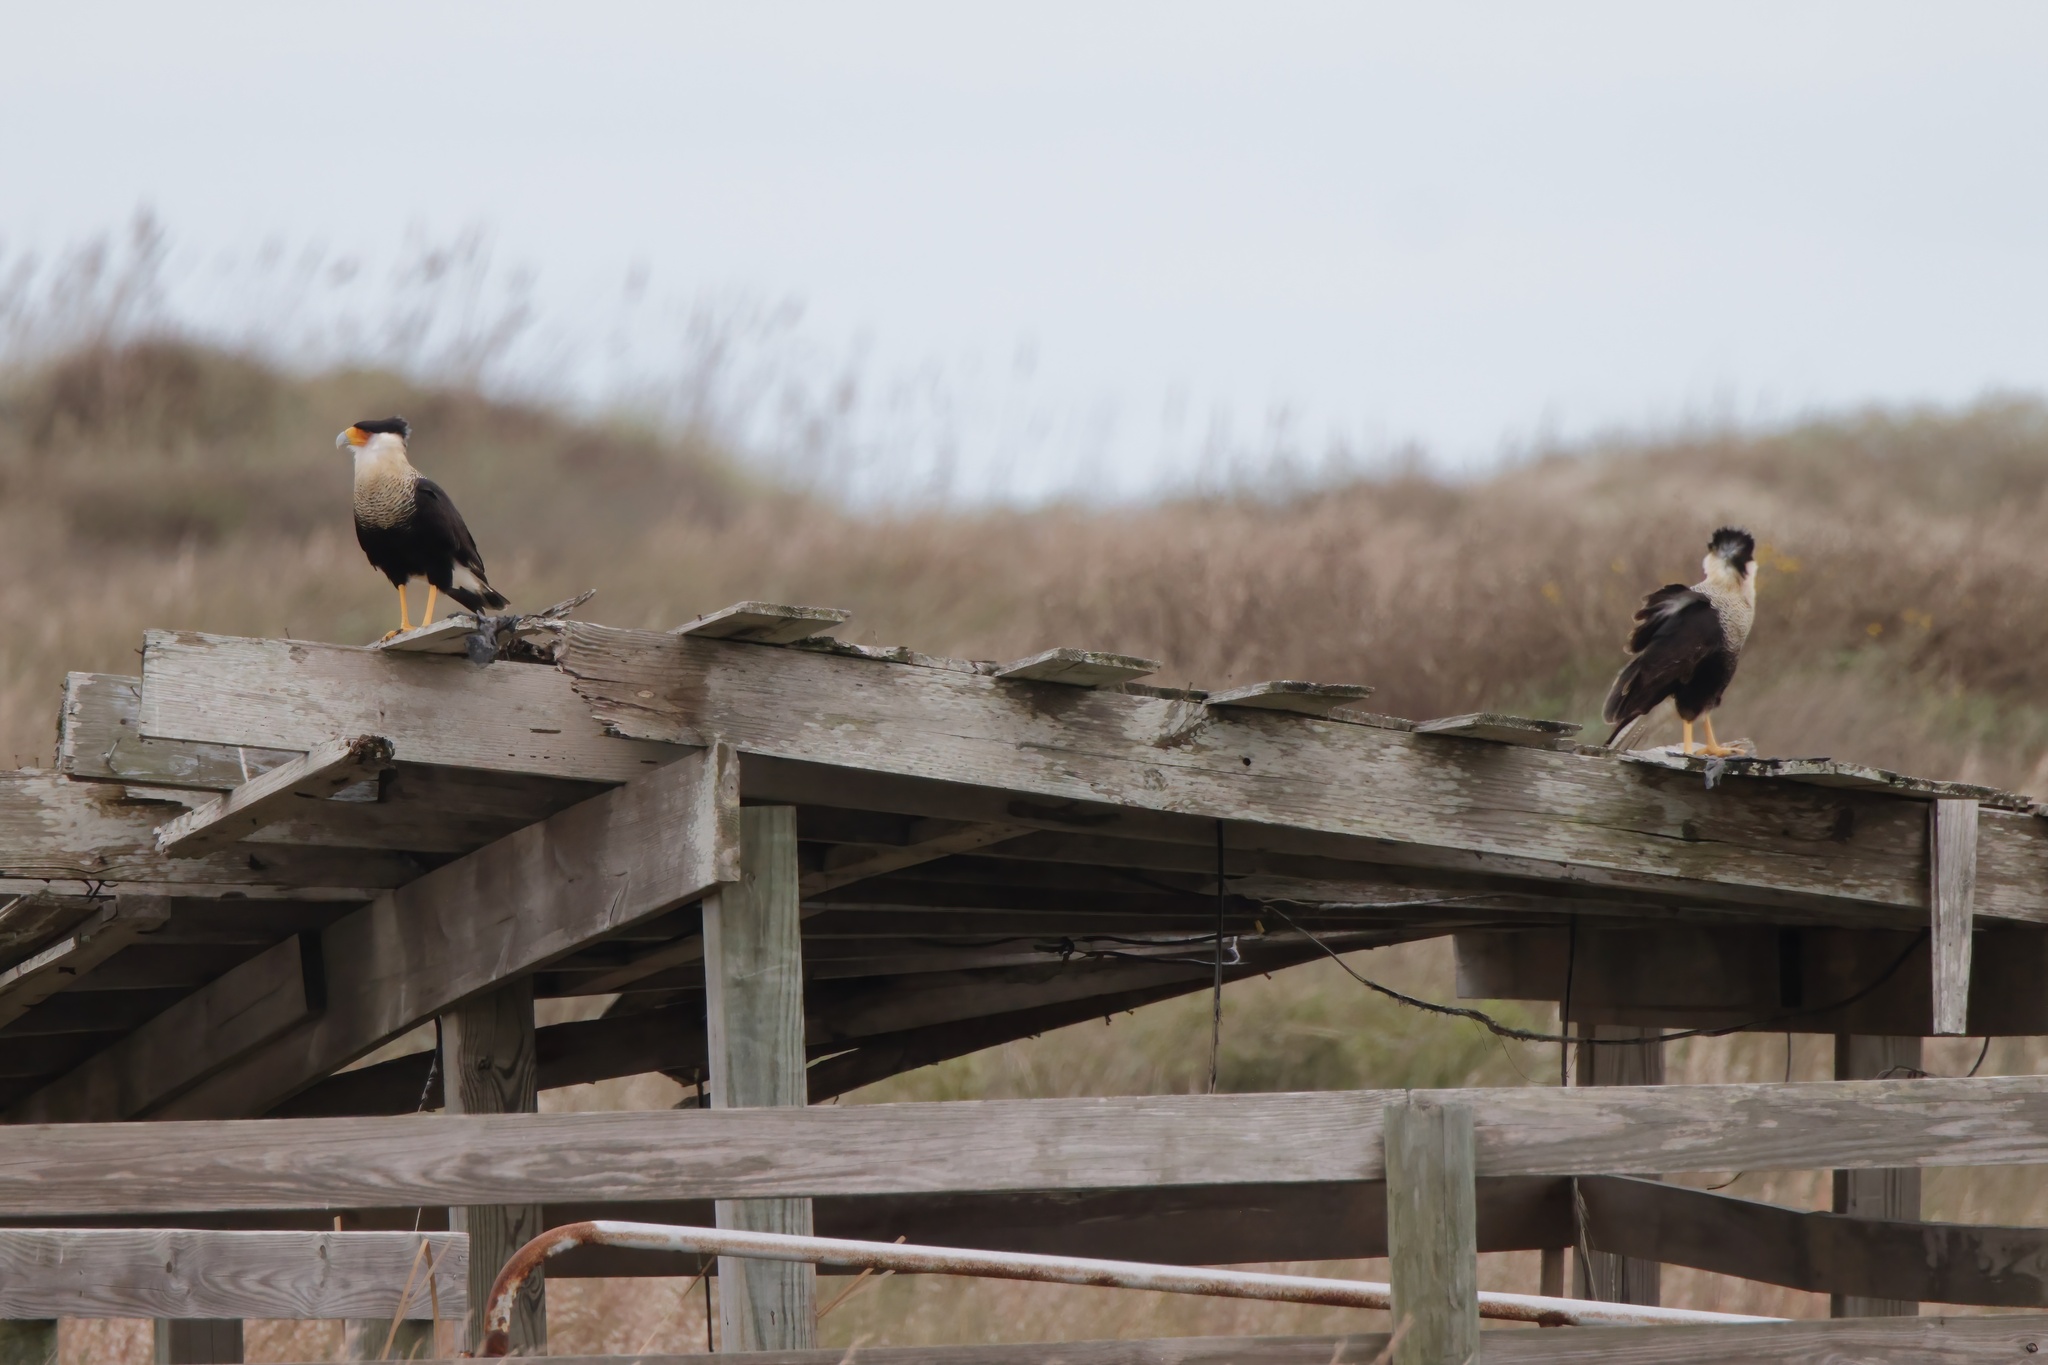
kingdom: Animalia
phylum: Chordata
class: Aves
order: Falconiformes
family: Falconidae
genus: Caracara
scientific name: Caracara plancus
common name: Southern caracara
